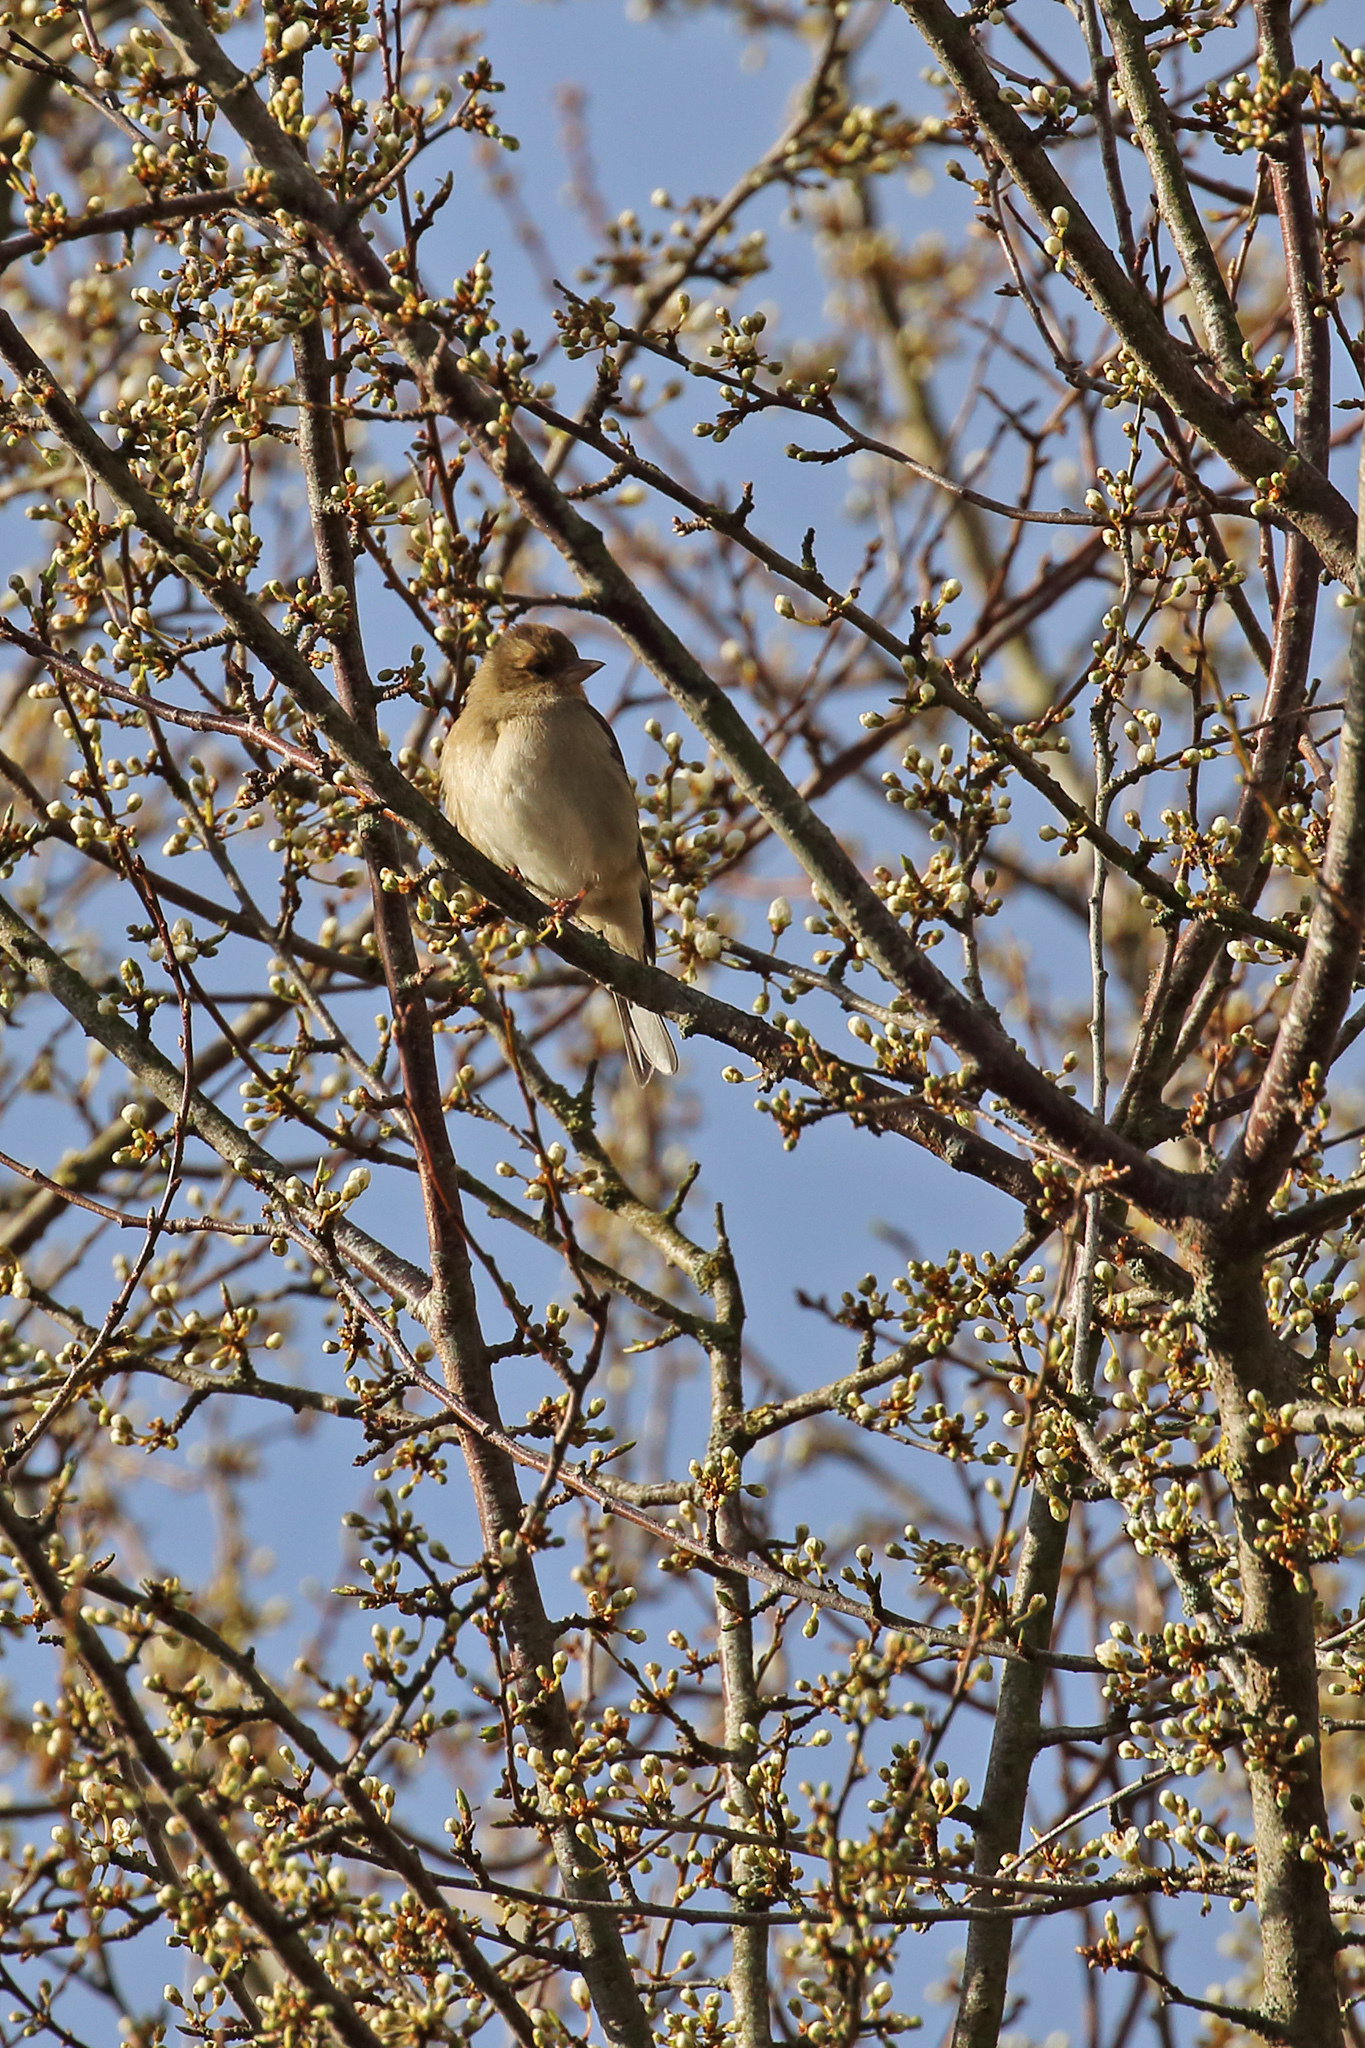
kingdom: Animalia
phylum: Chordata
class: Aves
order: Passeriformes
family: Fringillidae
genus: Fringilla
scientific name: Fringilla coelebs
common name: Common chaffinch
